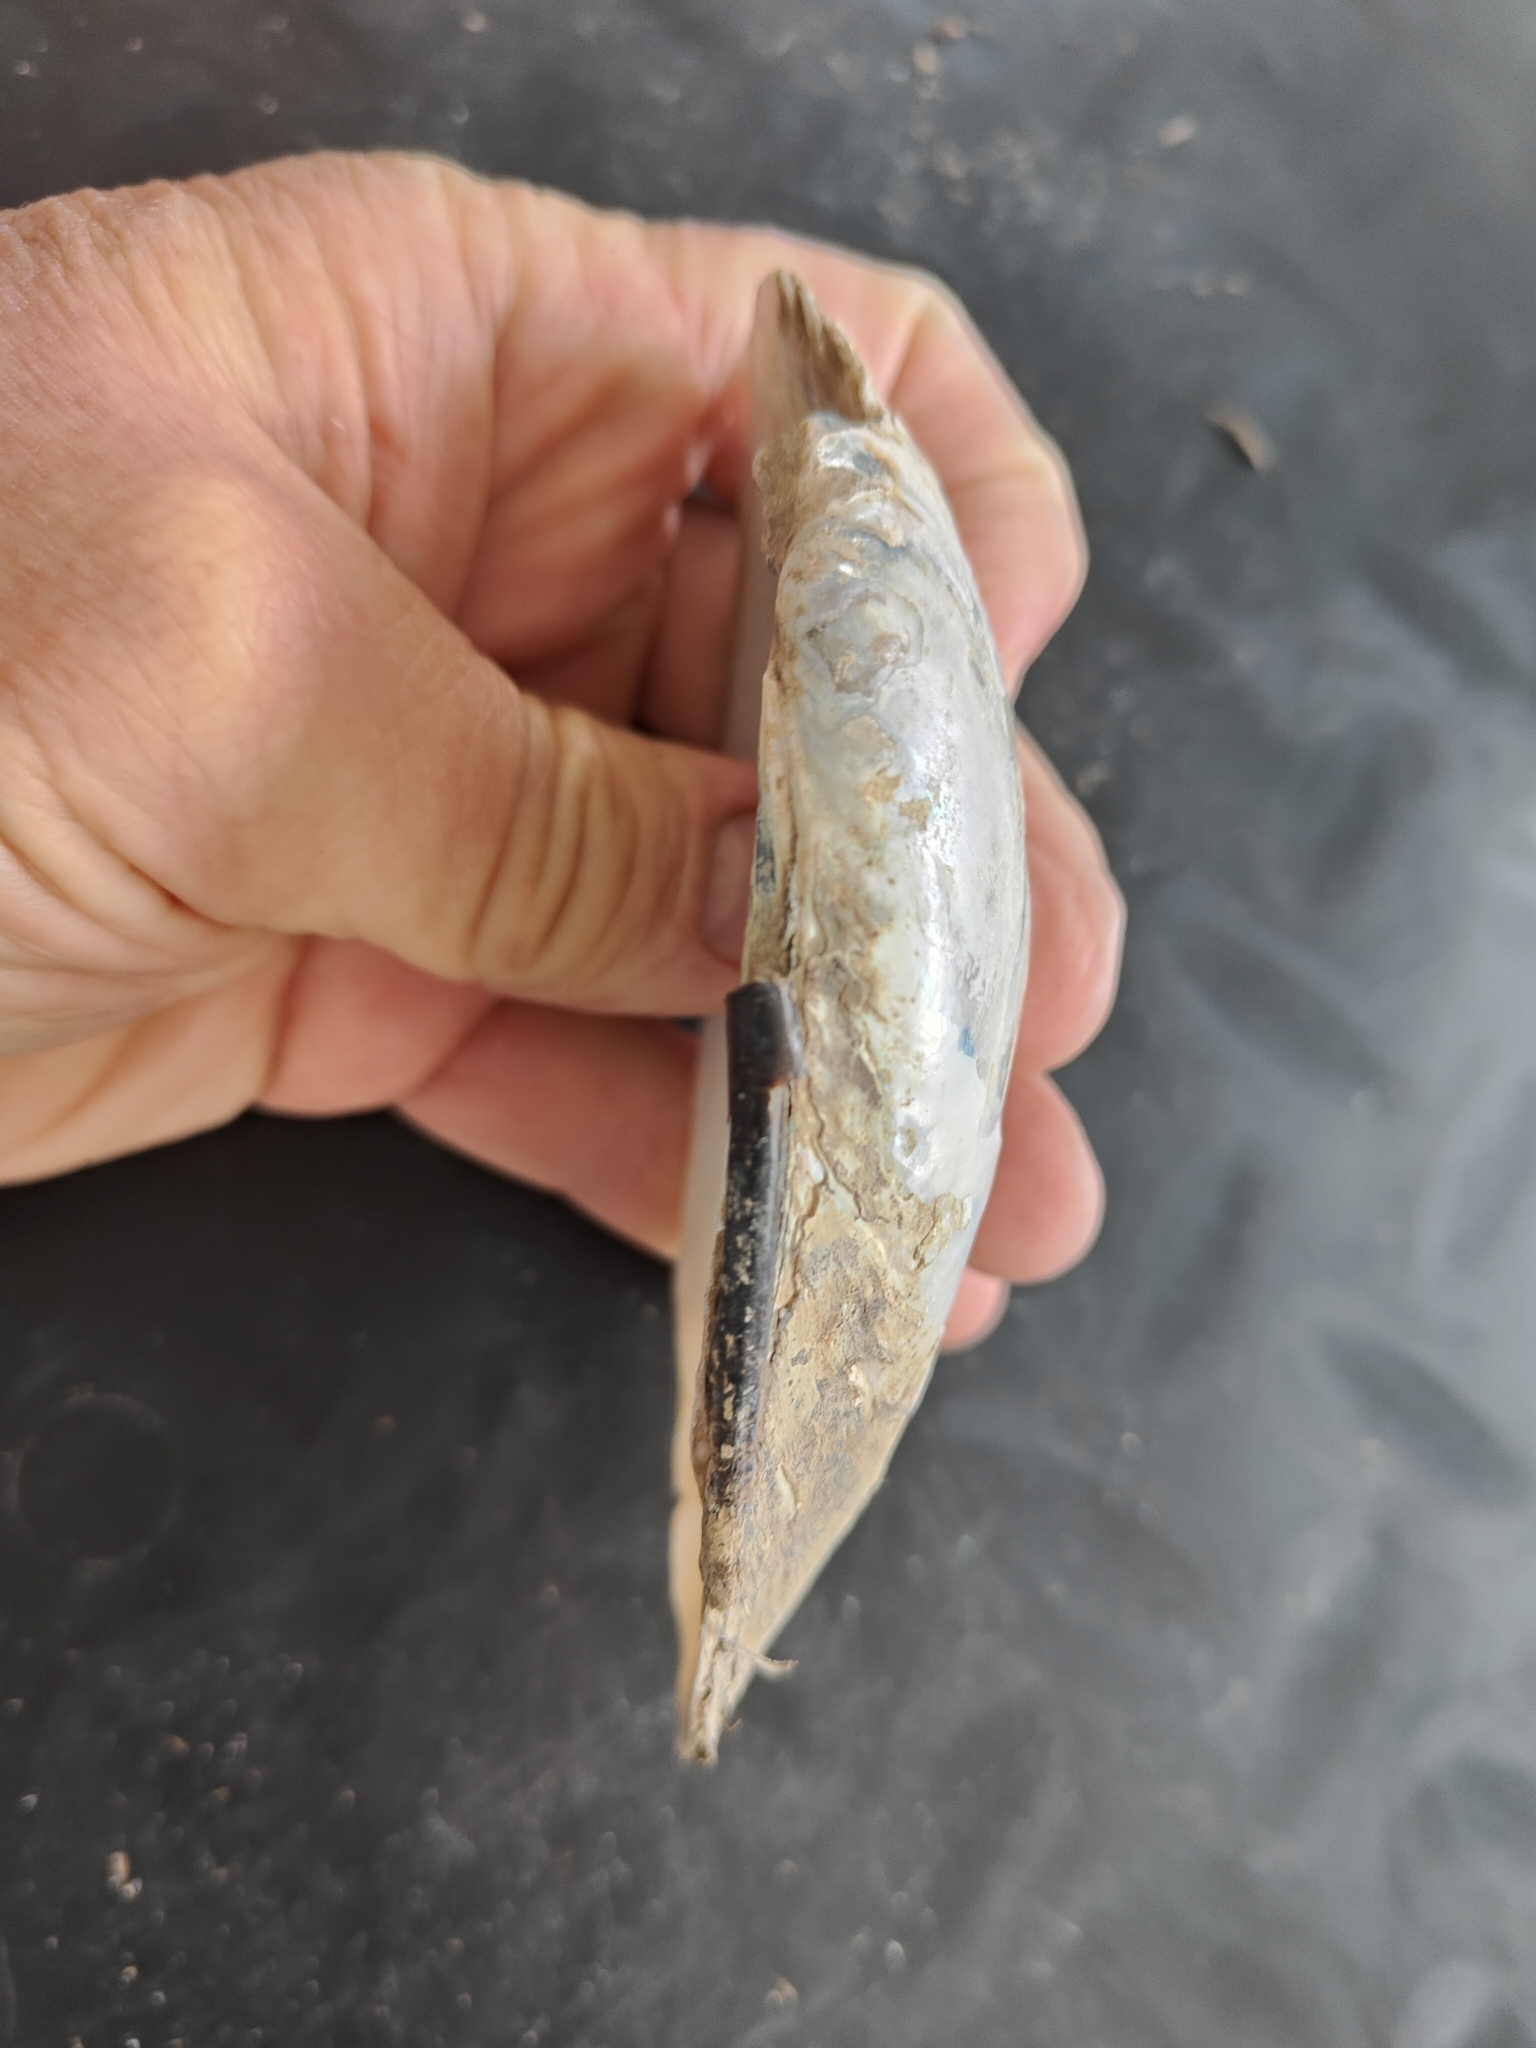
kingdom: Animalia
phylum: Mollusca
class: Bivalvia
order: Unionida
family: Unionidae
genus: Lampsilis
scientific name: Lampsilis siliquoidea
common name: Fatmucket
